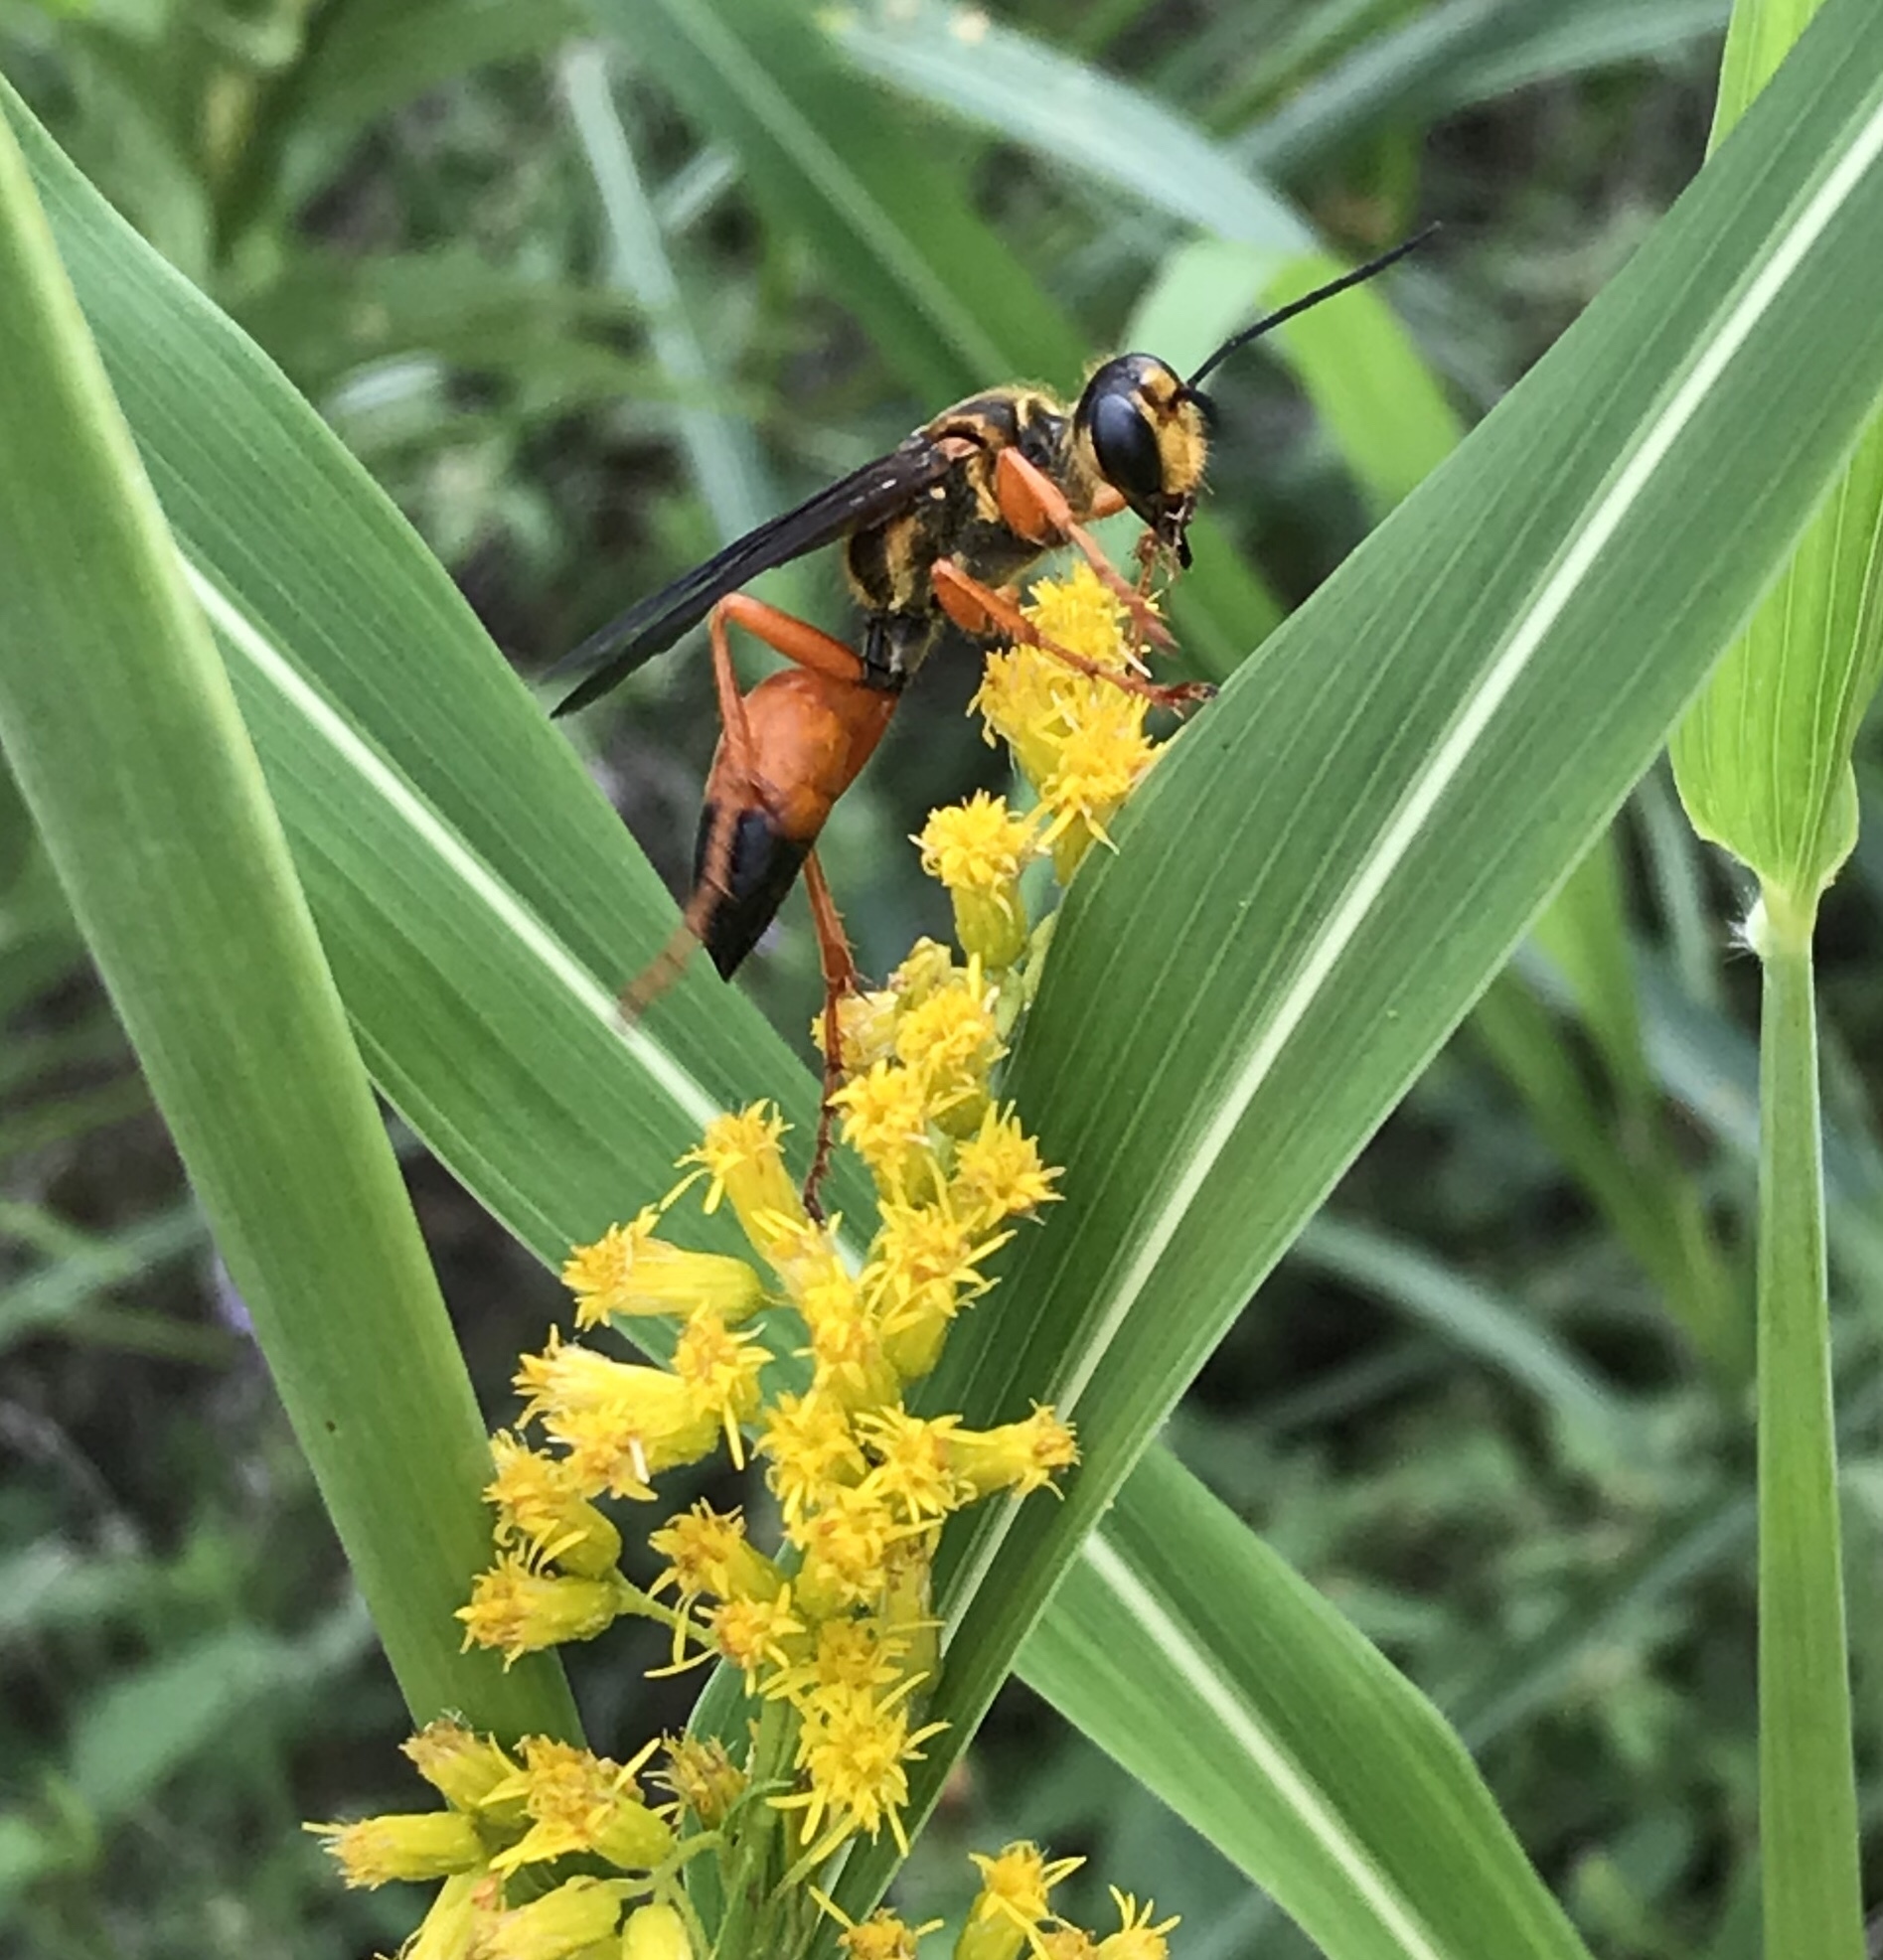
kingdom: Animalia
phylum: Arthropoda
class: Insecta
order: Hymenoptera
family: Sphecidae
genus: Sphex
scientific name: Sphex ichneumoneus
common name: Great golden digger wasp
